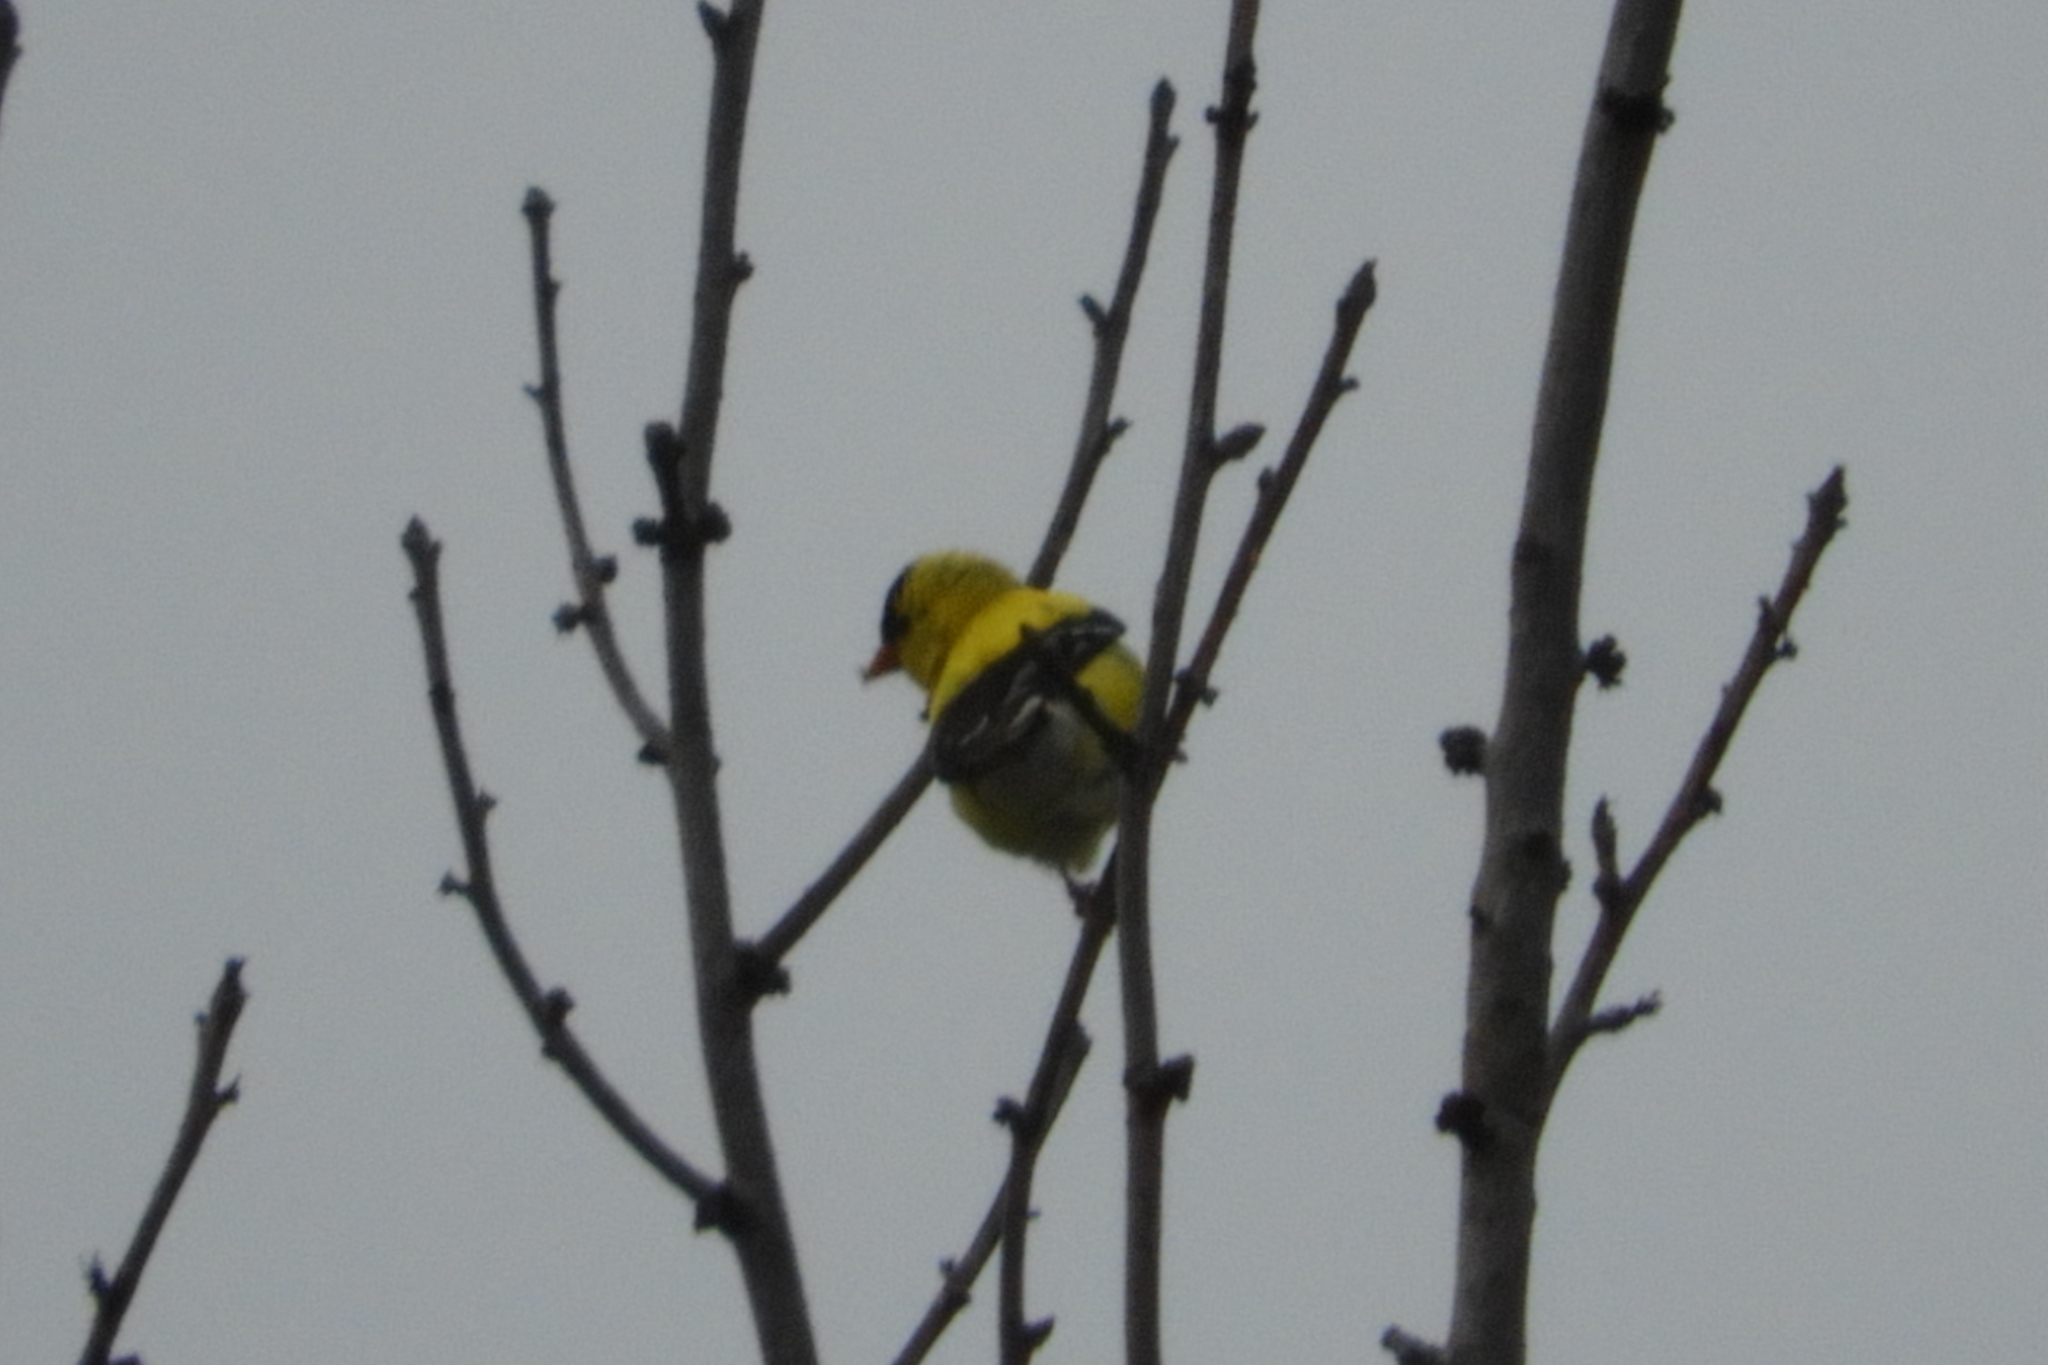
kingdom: Animalia
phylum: Chordata
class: Aves
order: Passeriformes
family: Fringillidae
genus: Spinus
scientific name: Spinus tristis
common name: American goldfinch
